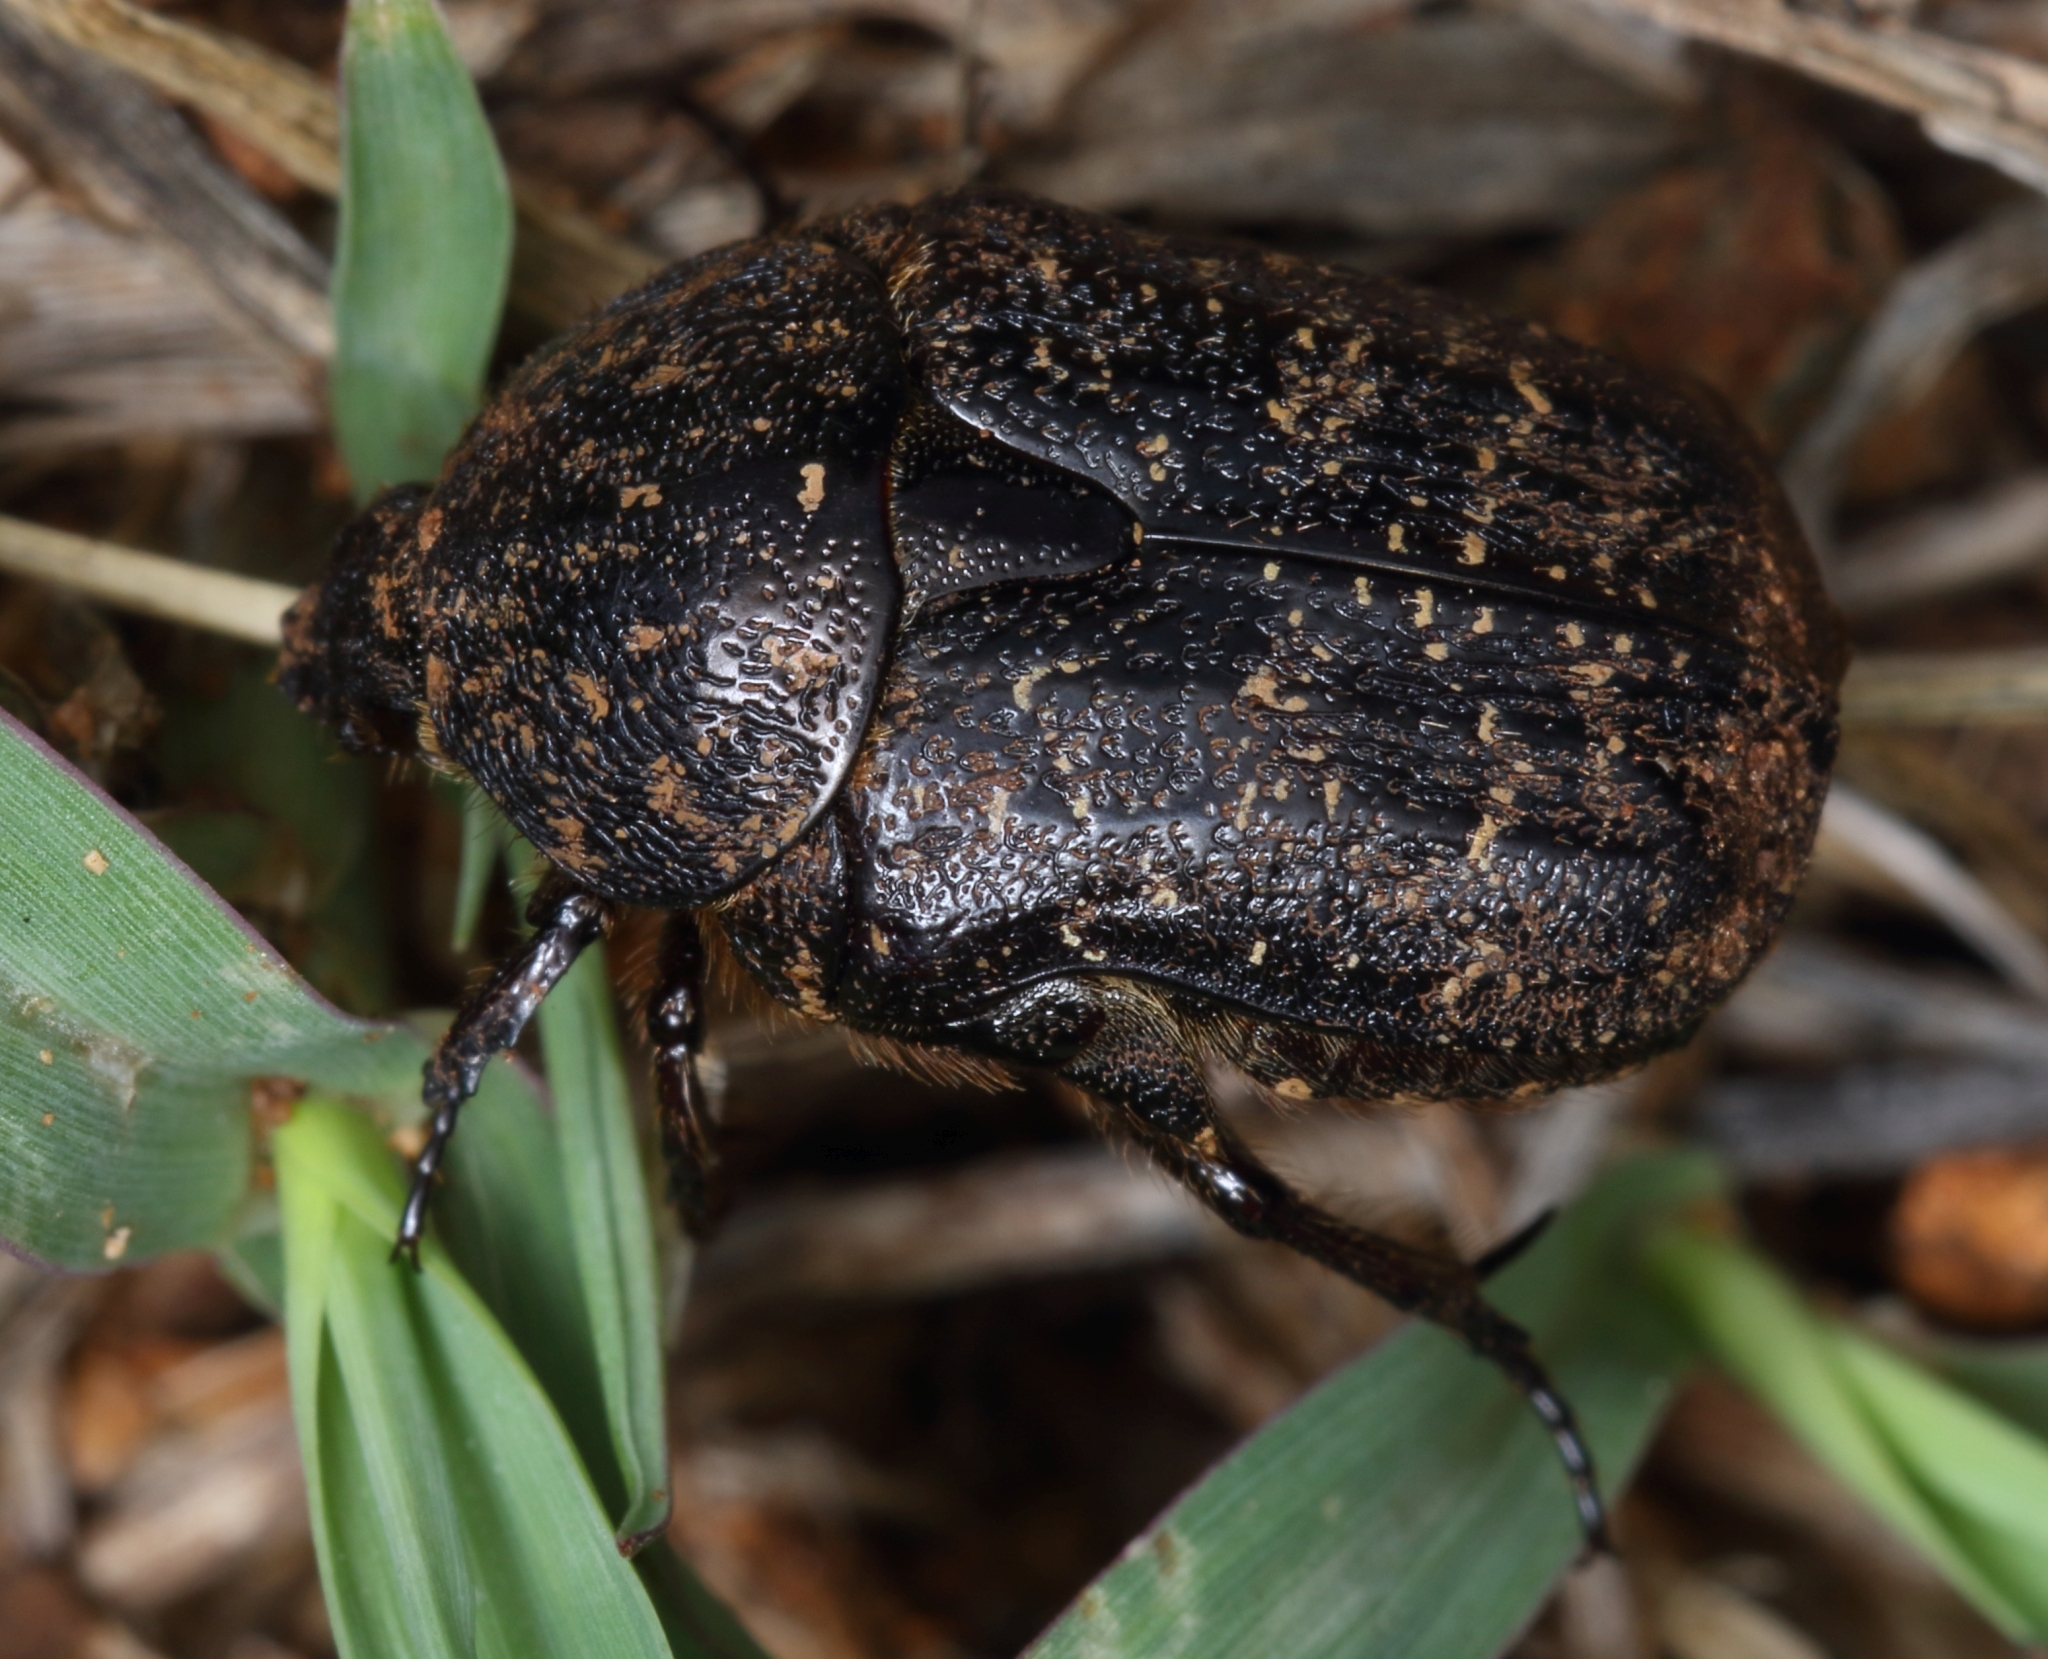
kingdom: Animalia
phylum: Arthropoda
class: Insecta
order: Coleoptera
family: Scarabaeidae
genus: Xeloma
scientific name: Xeloma maura
